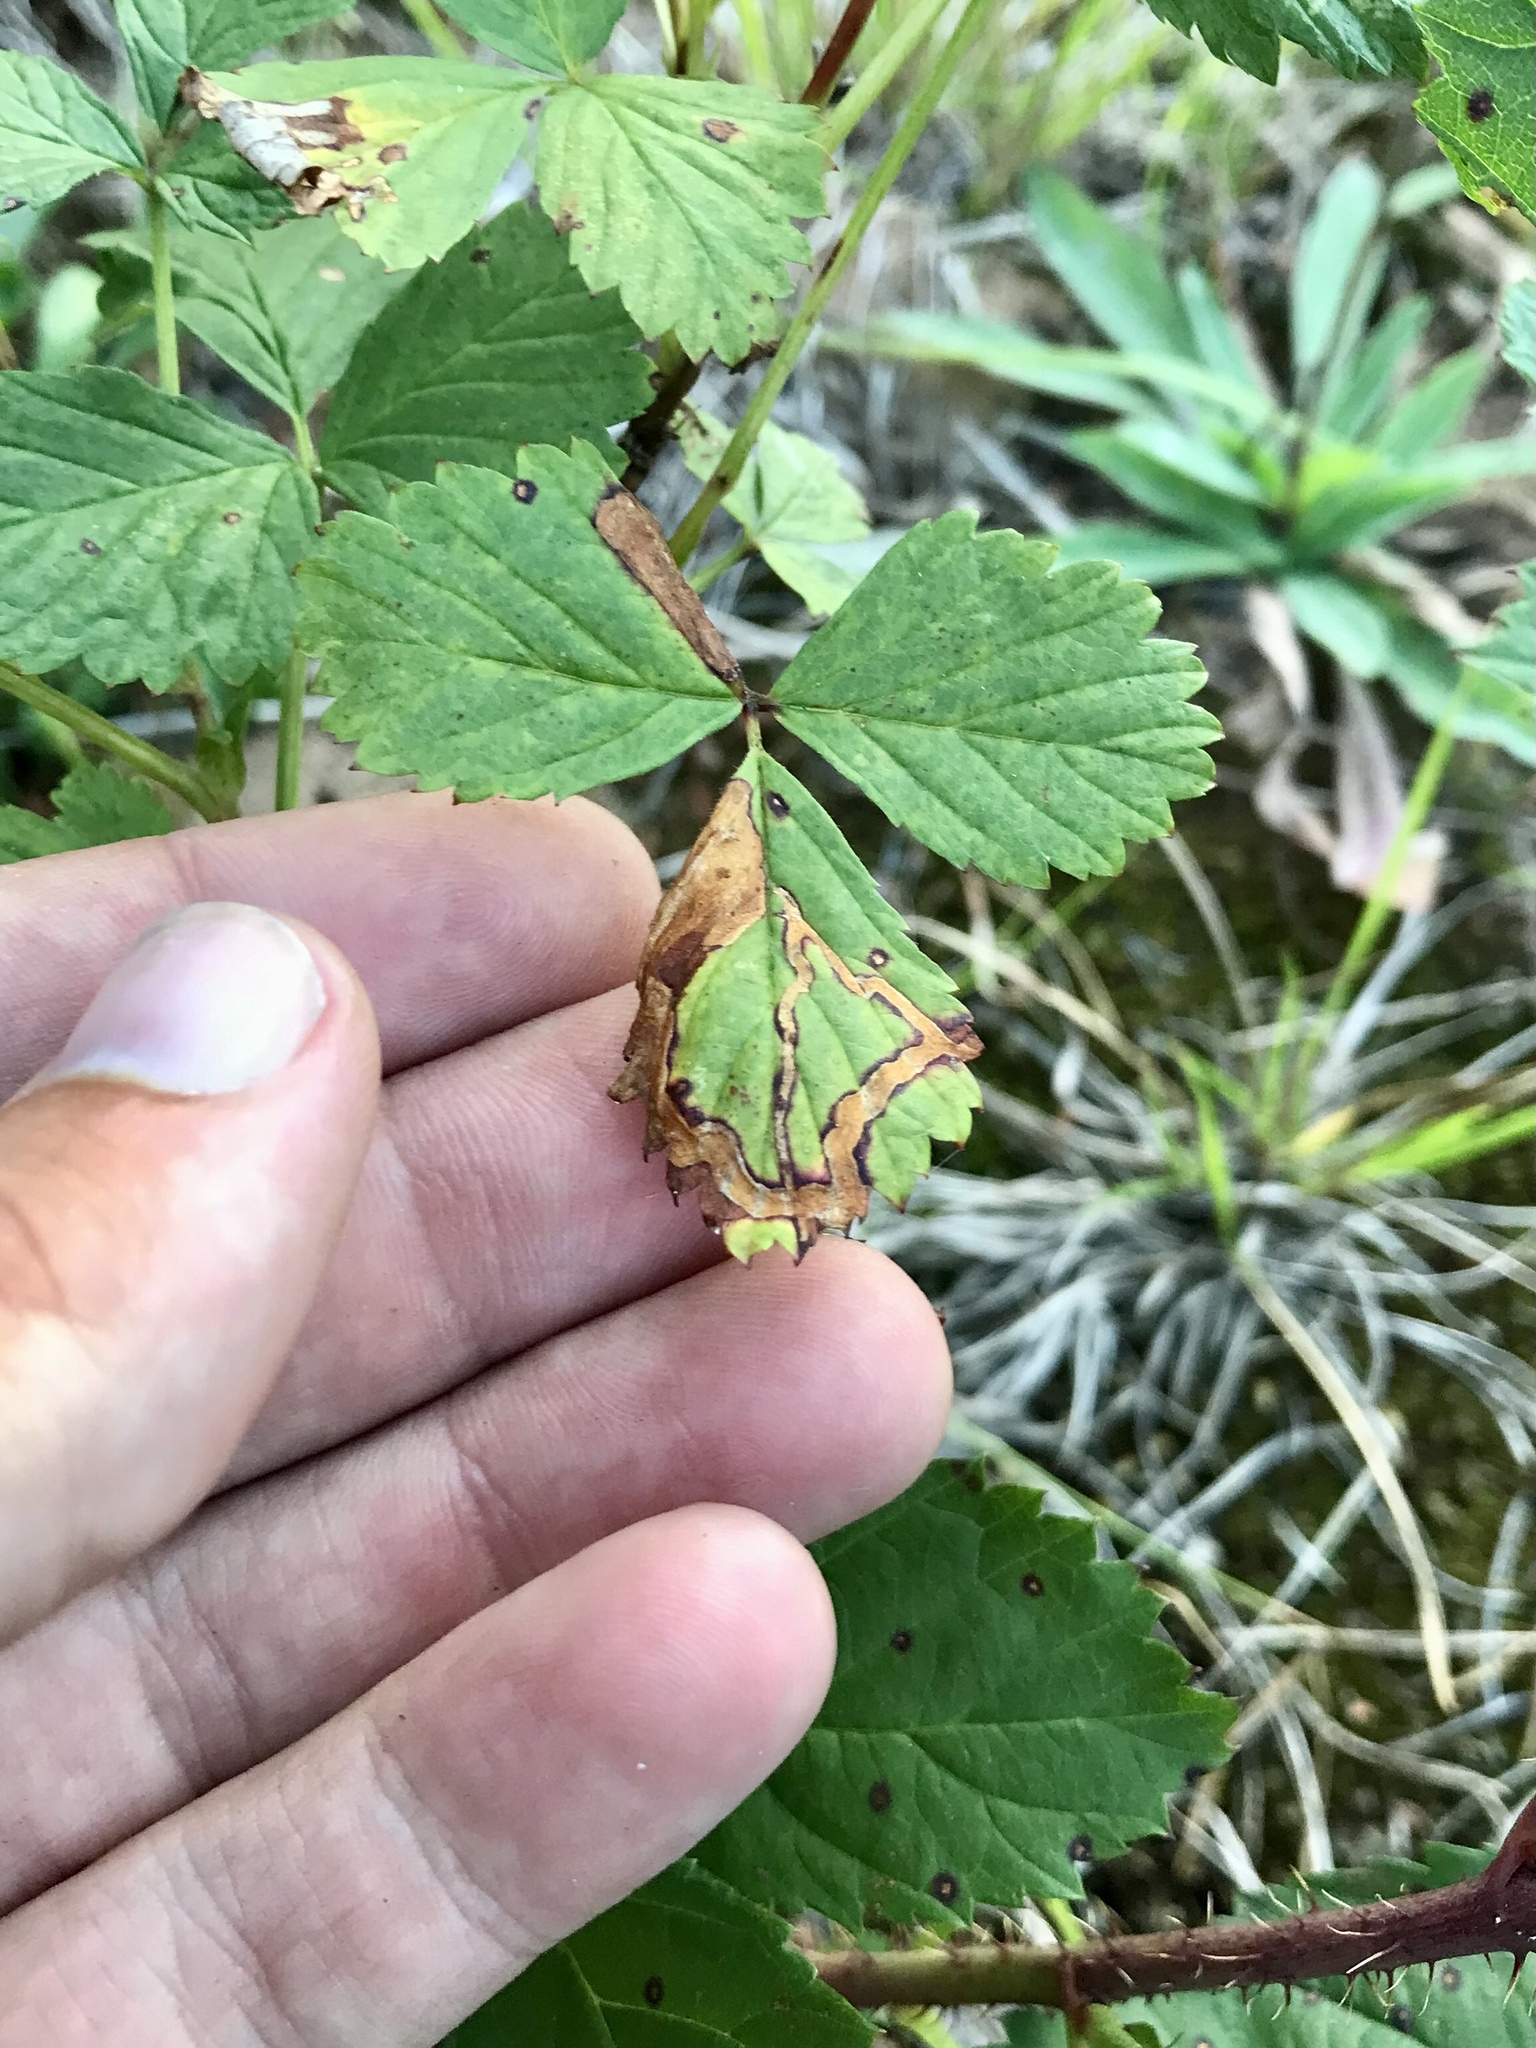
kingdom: Animalia
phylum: Arthropoda
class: Insecta
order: Diptera
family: Agromyzidae
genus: Agromyza
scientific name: Agromyza vockerothi
